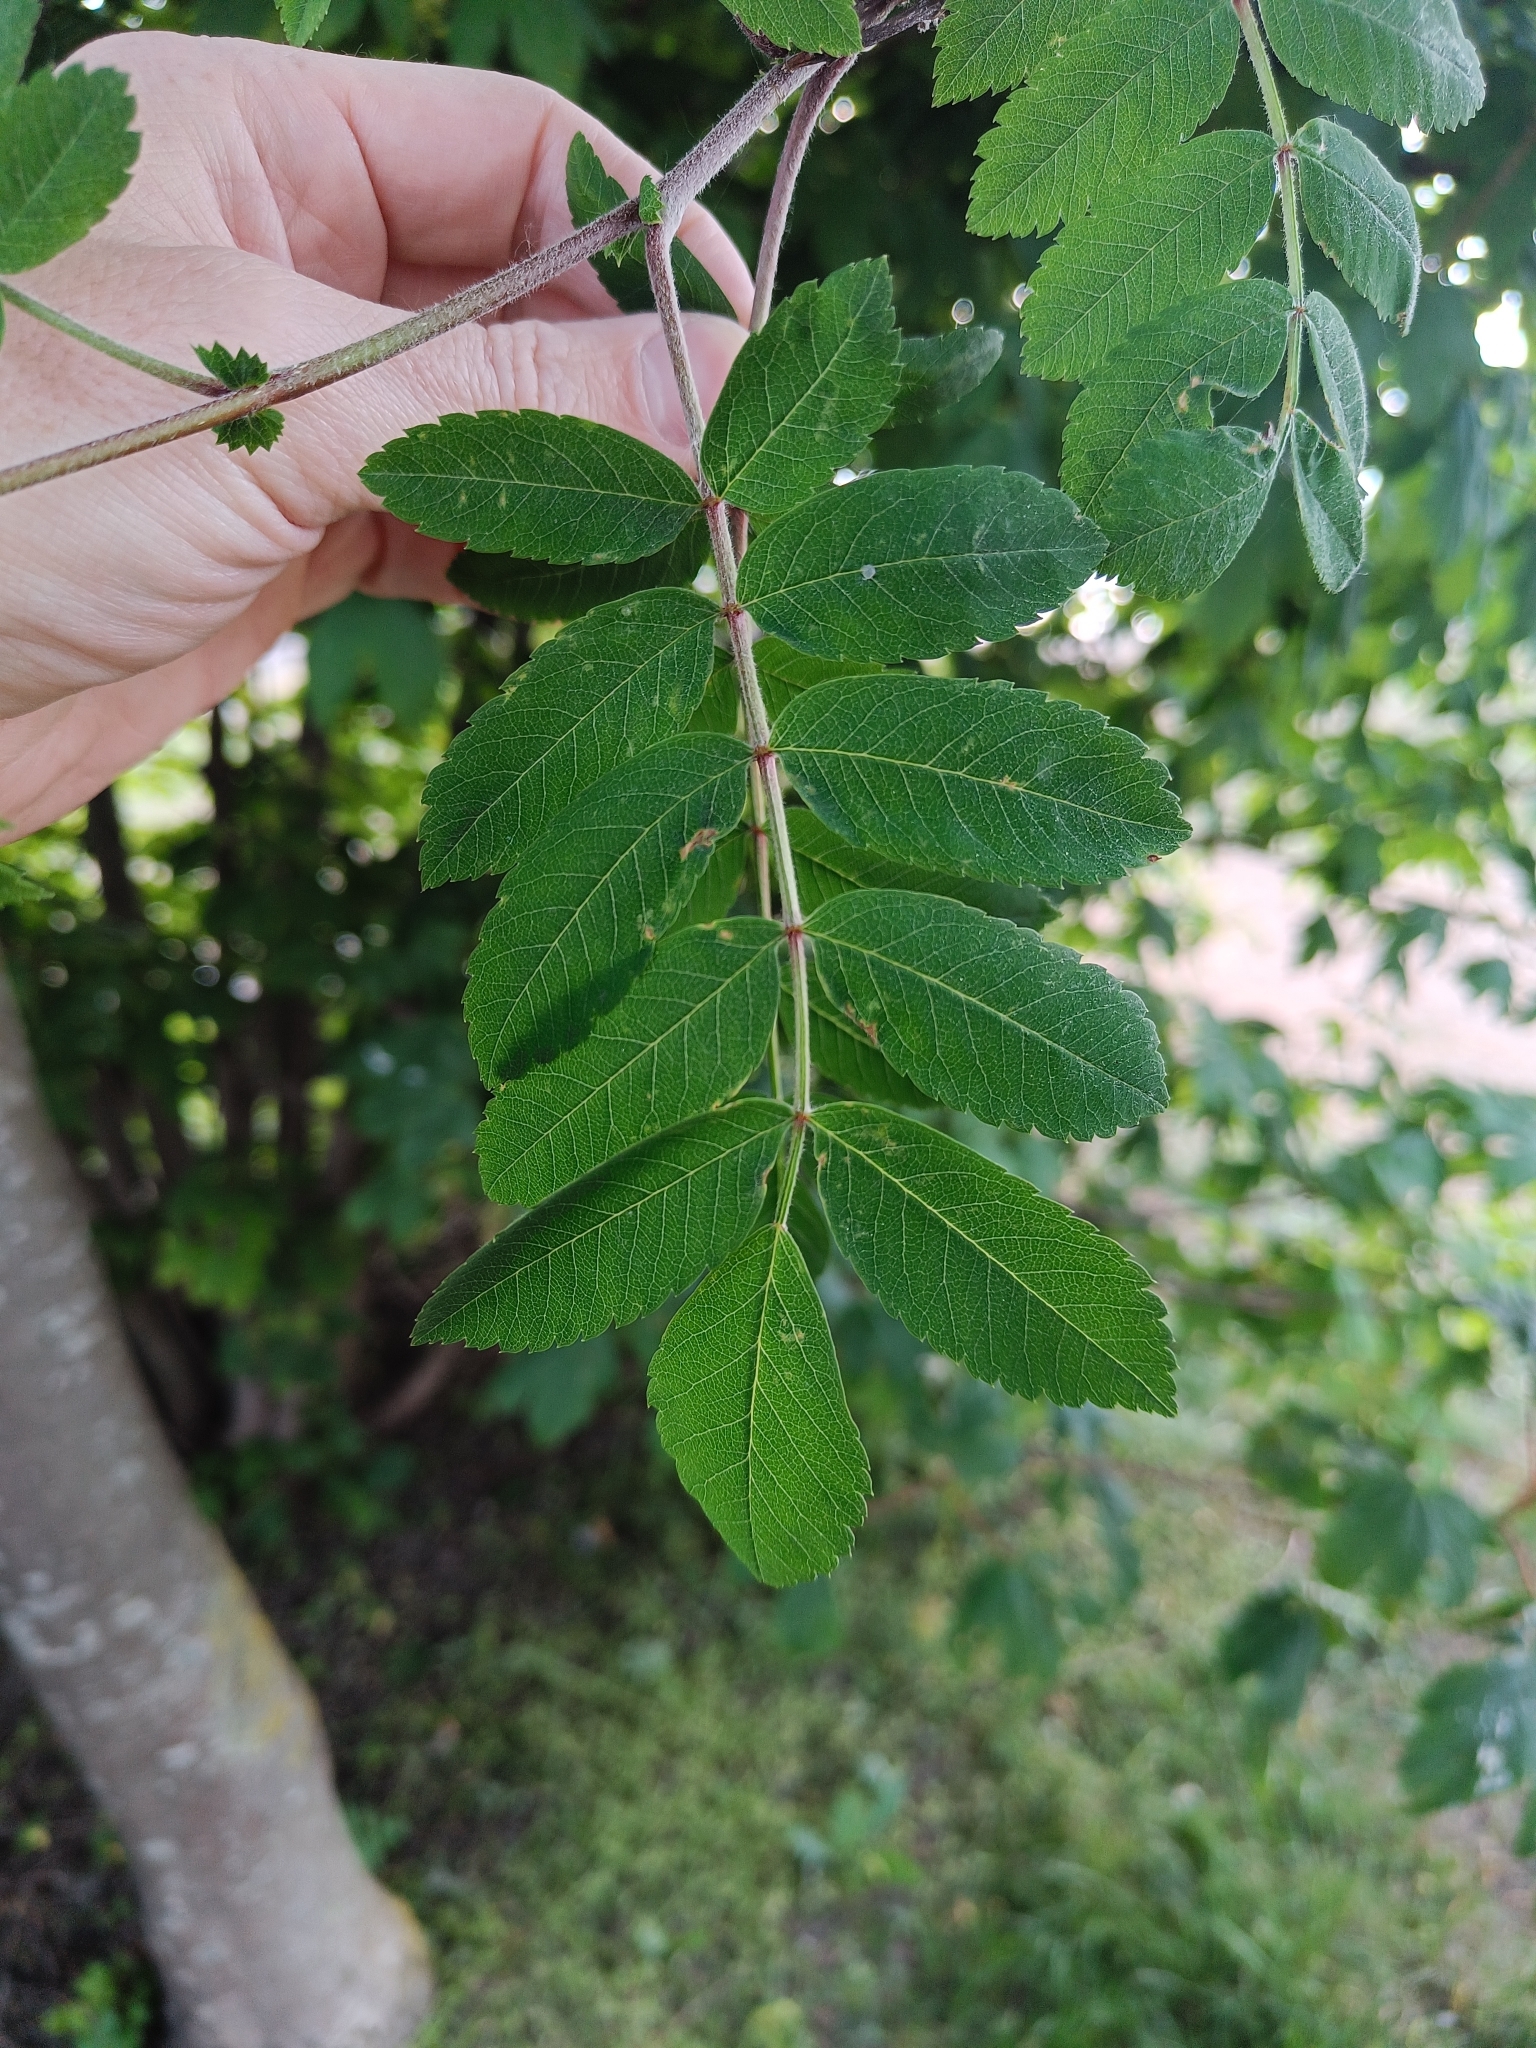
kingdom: Plantae
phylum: Tracheophyta
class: Magnoliopsida
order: Rosales
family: Rosaceae
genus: Sorbus
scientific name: Sorbus aucuparia
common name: Rowan
